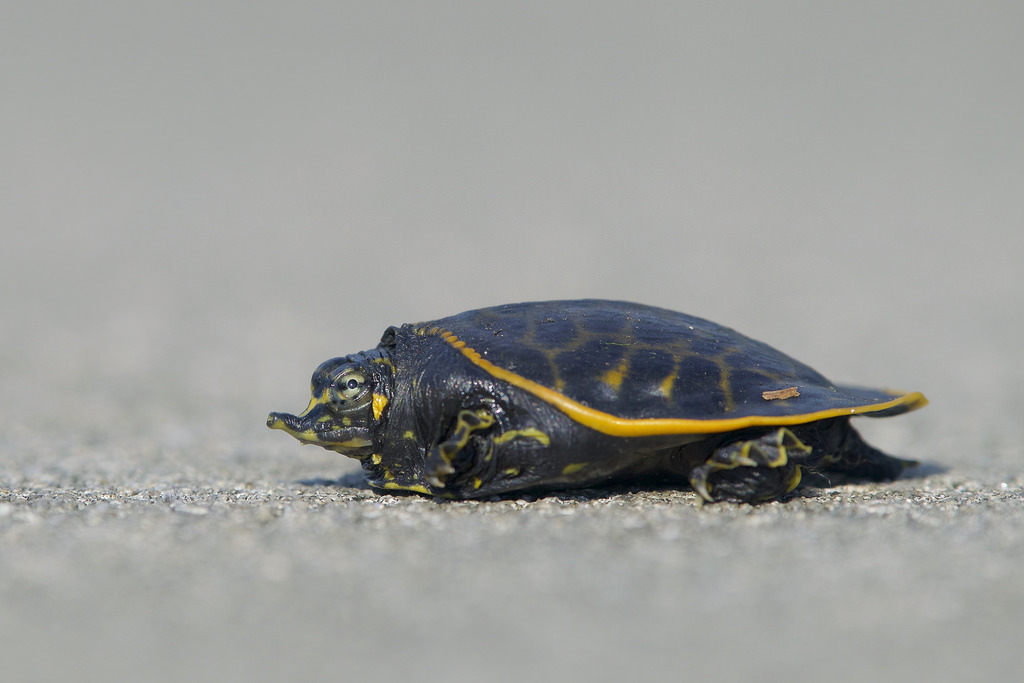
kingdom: Animalia
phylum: Chordata
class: Testudines
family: Trionychidae
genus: Apalone
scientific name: Apalone ferox
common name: Florida softshell turtle
